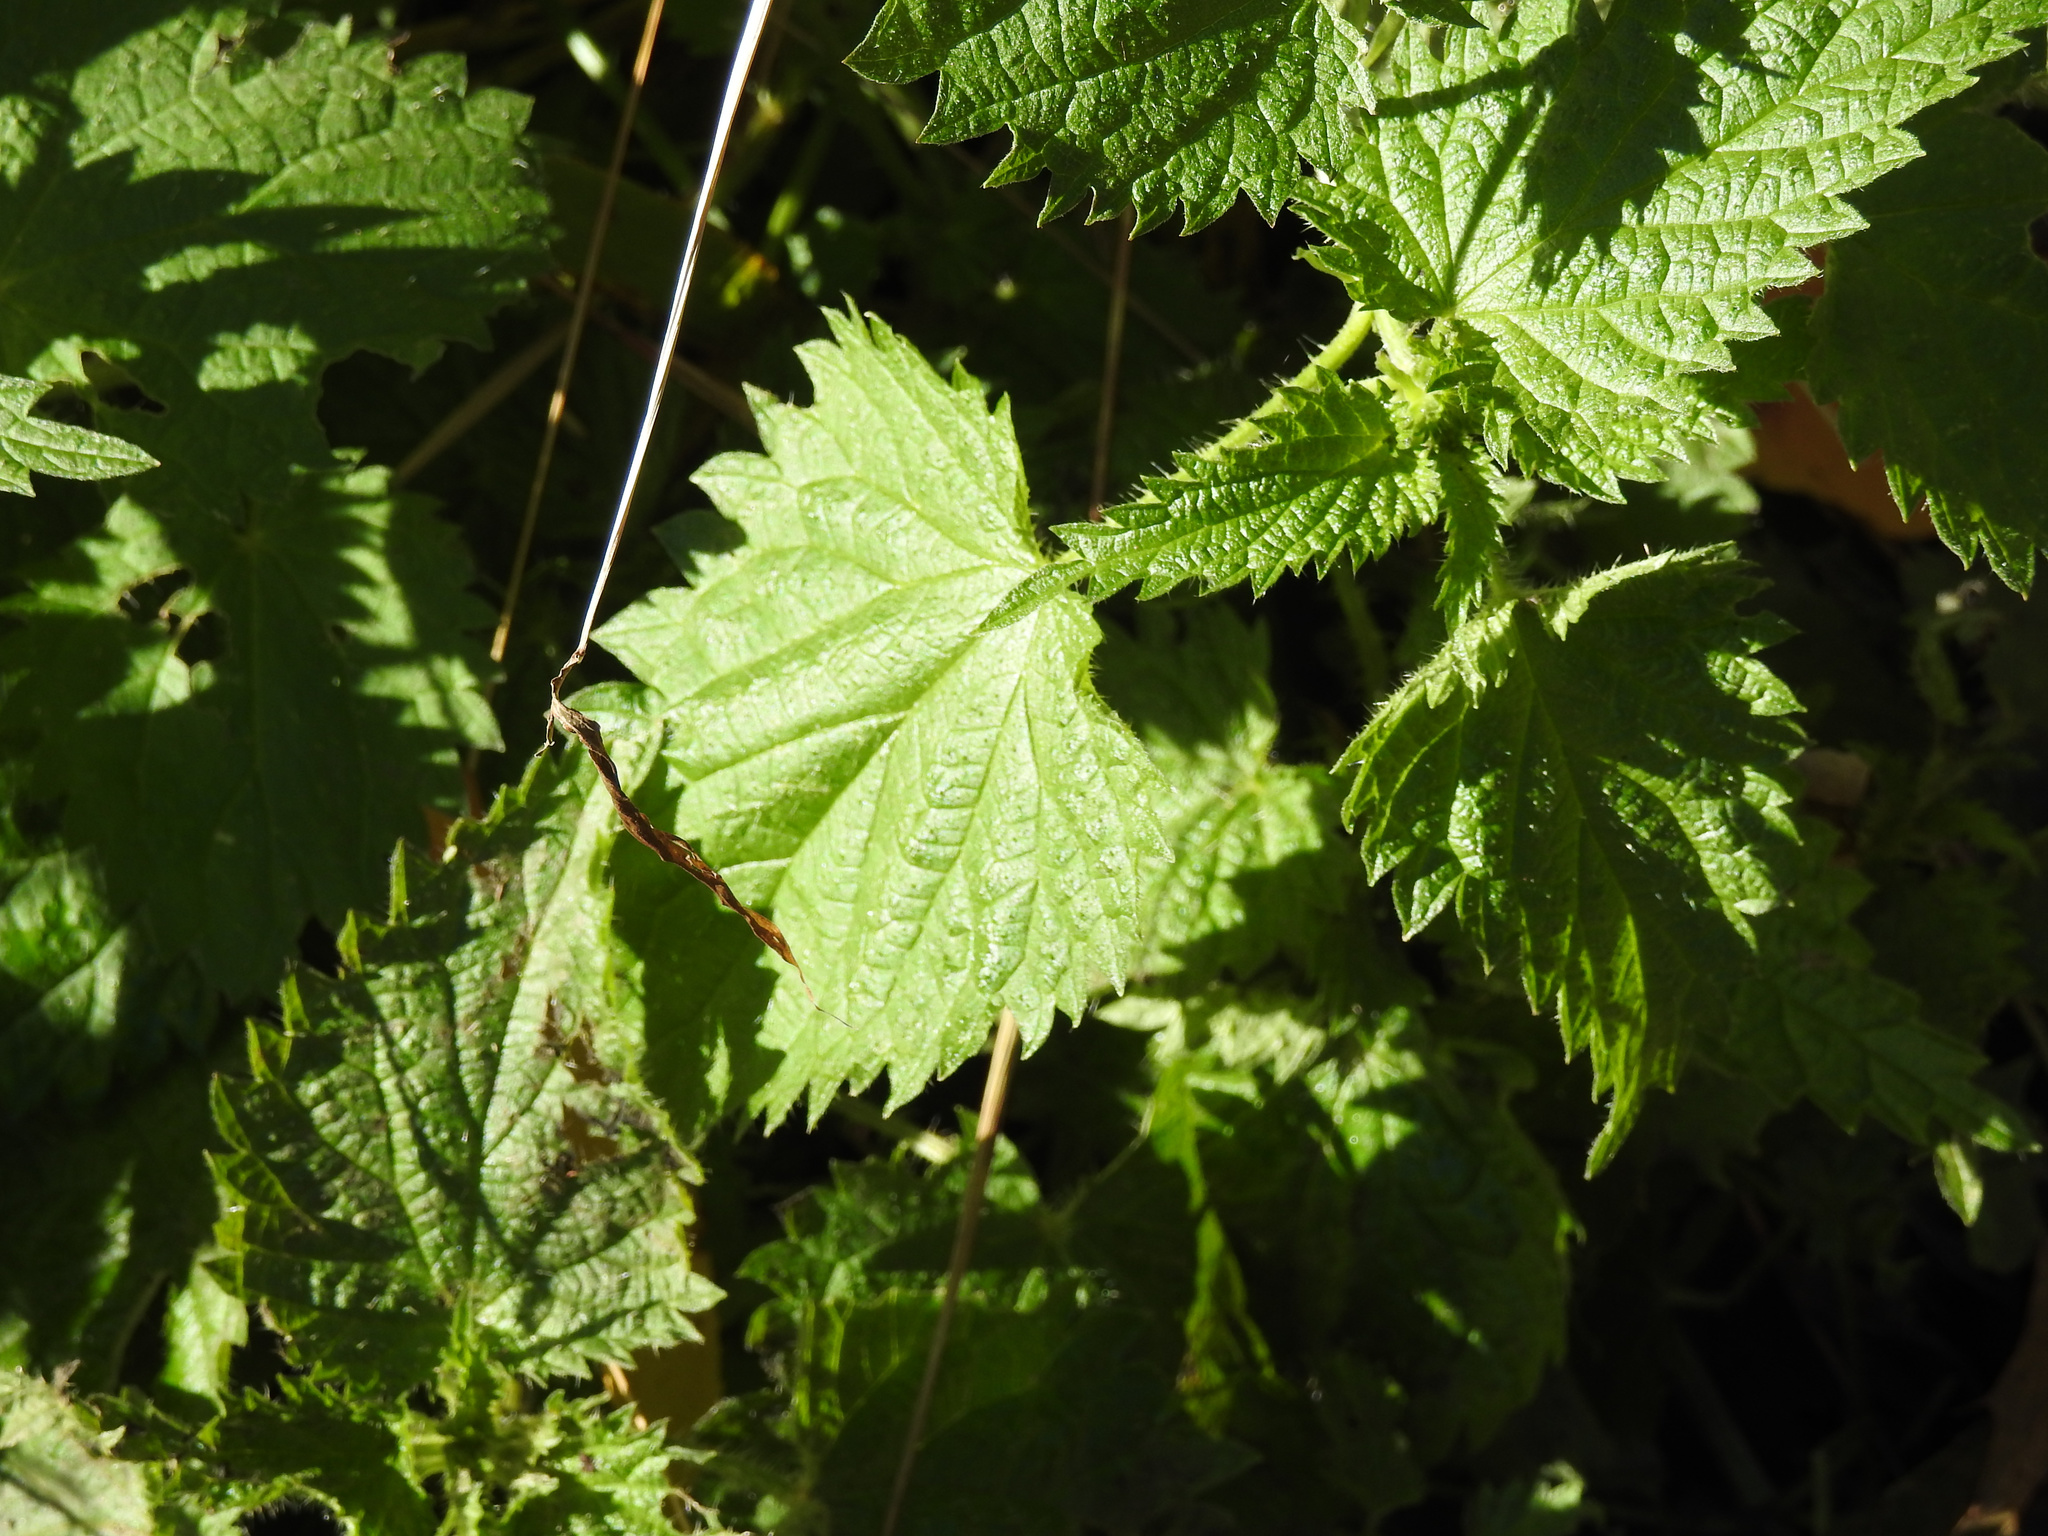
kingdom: Plantae
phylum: Tracheophyta
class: Magnoliopsida
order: Rosales
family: Urticaceae
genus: Urtica
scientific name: Urtica dioica
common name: Common nettle
